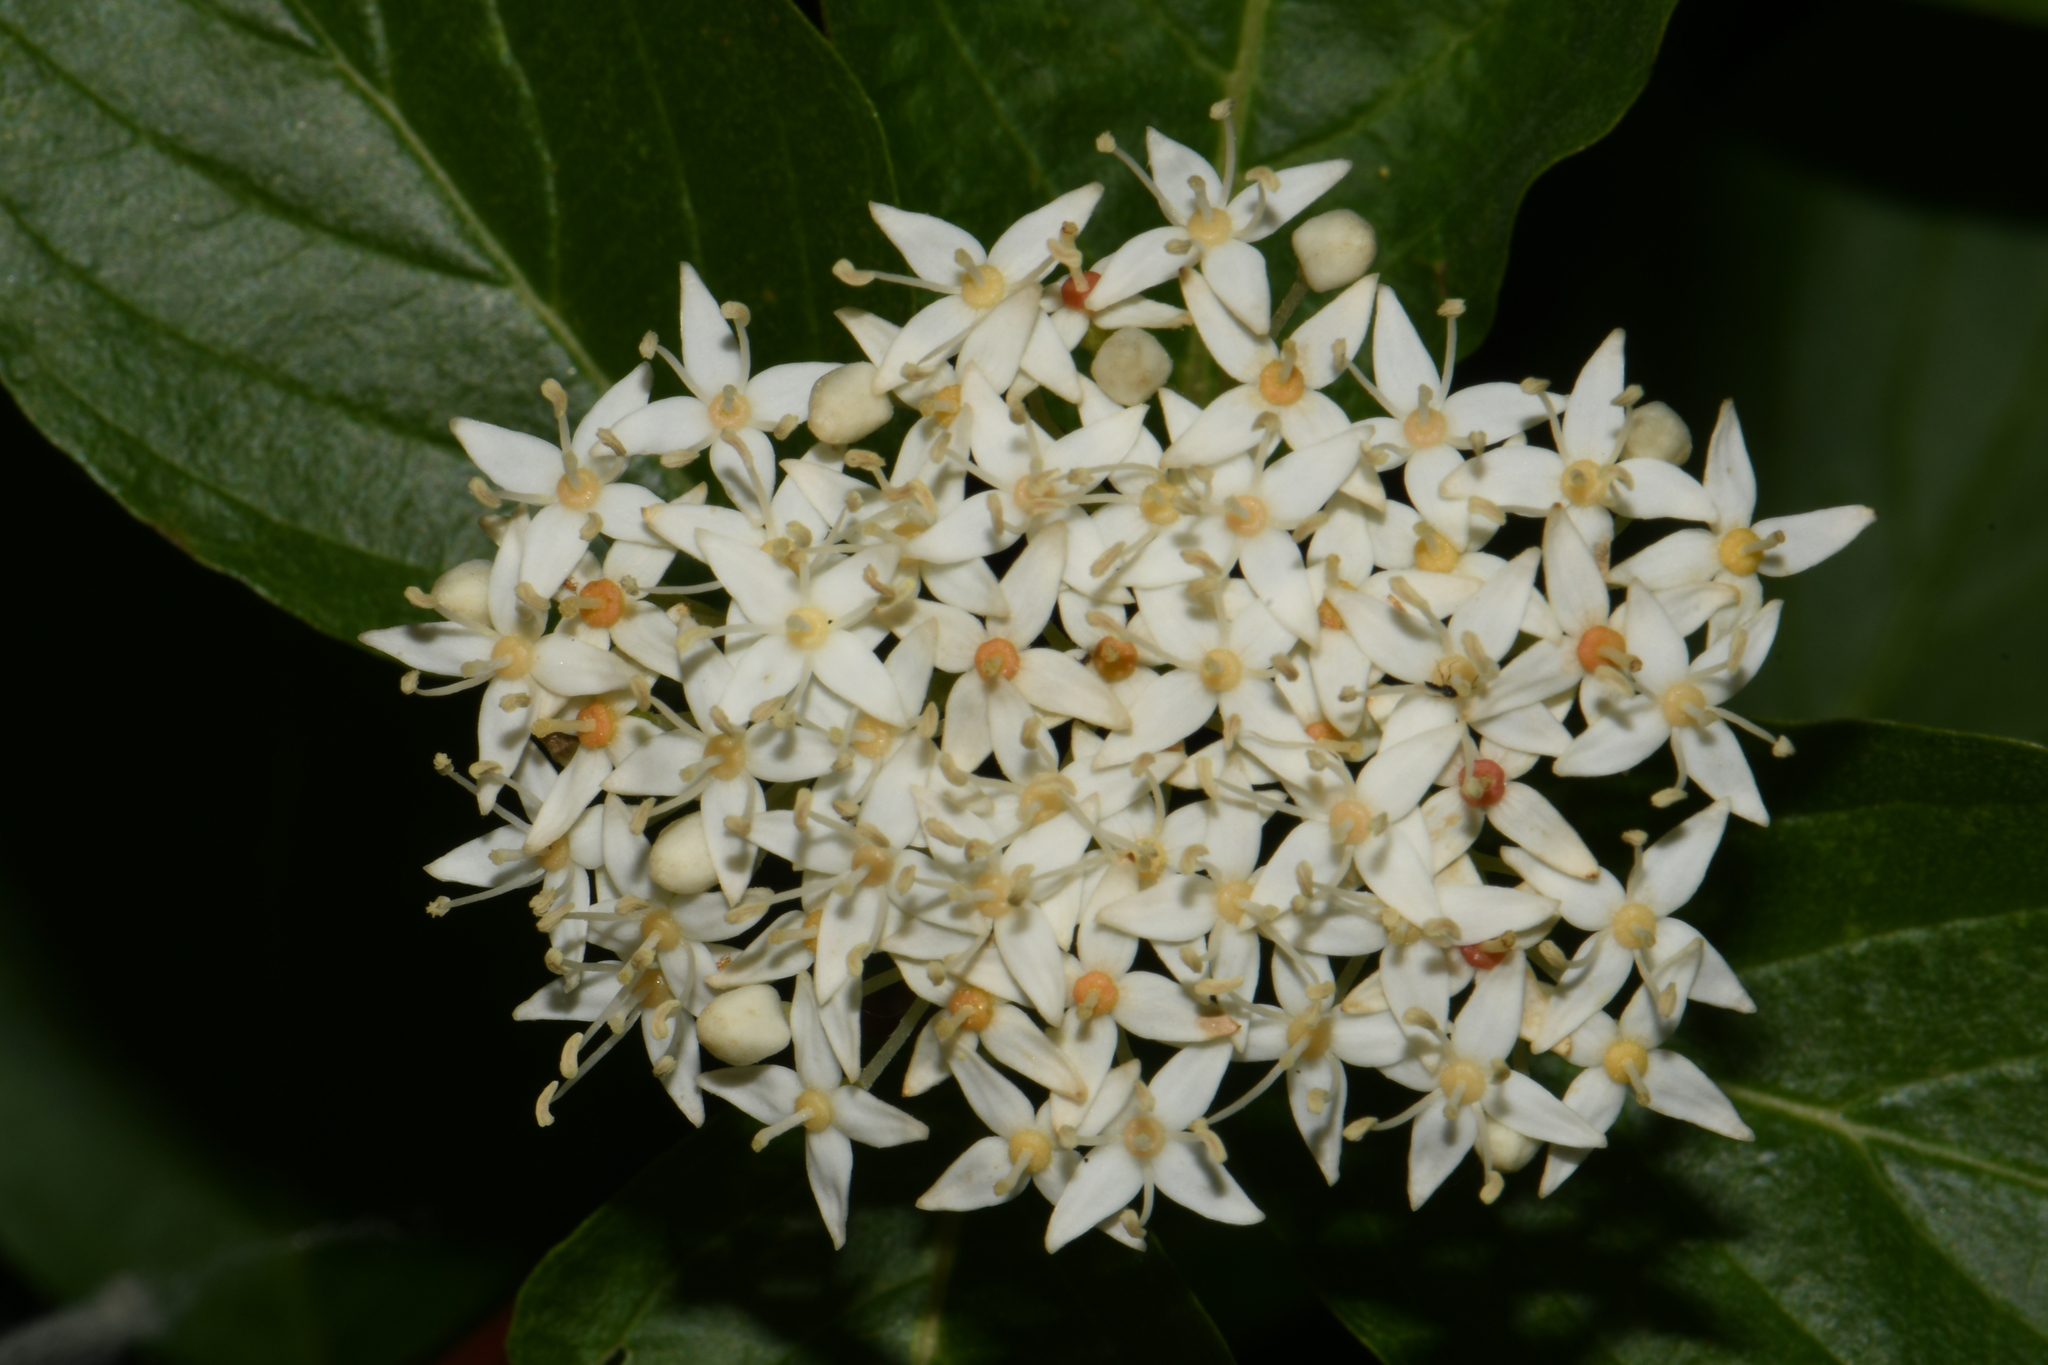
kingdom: Plantae
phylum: Tracheophyta
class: Magnoliopsida
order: Cornales
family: Cornaceae
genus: Cornus
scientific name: Cornus sericea
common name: Red-osier dogwood
